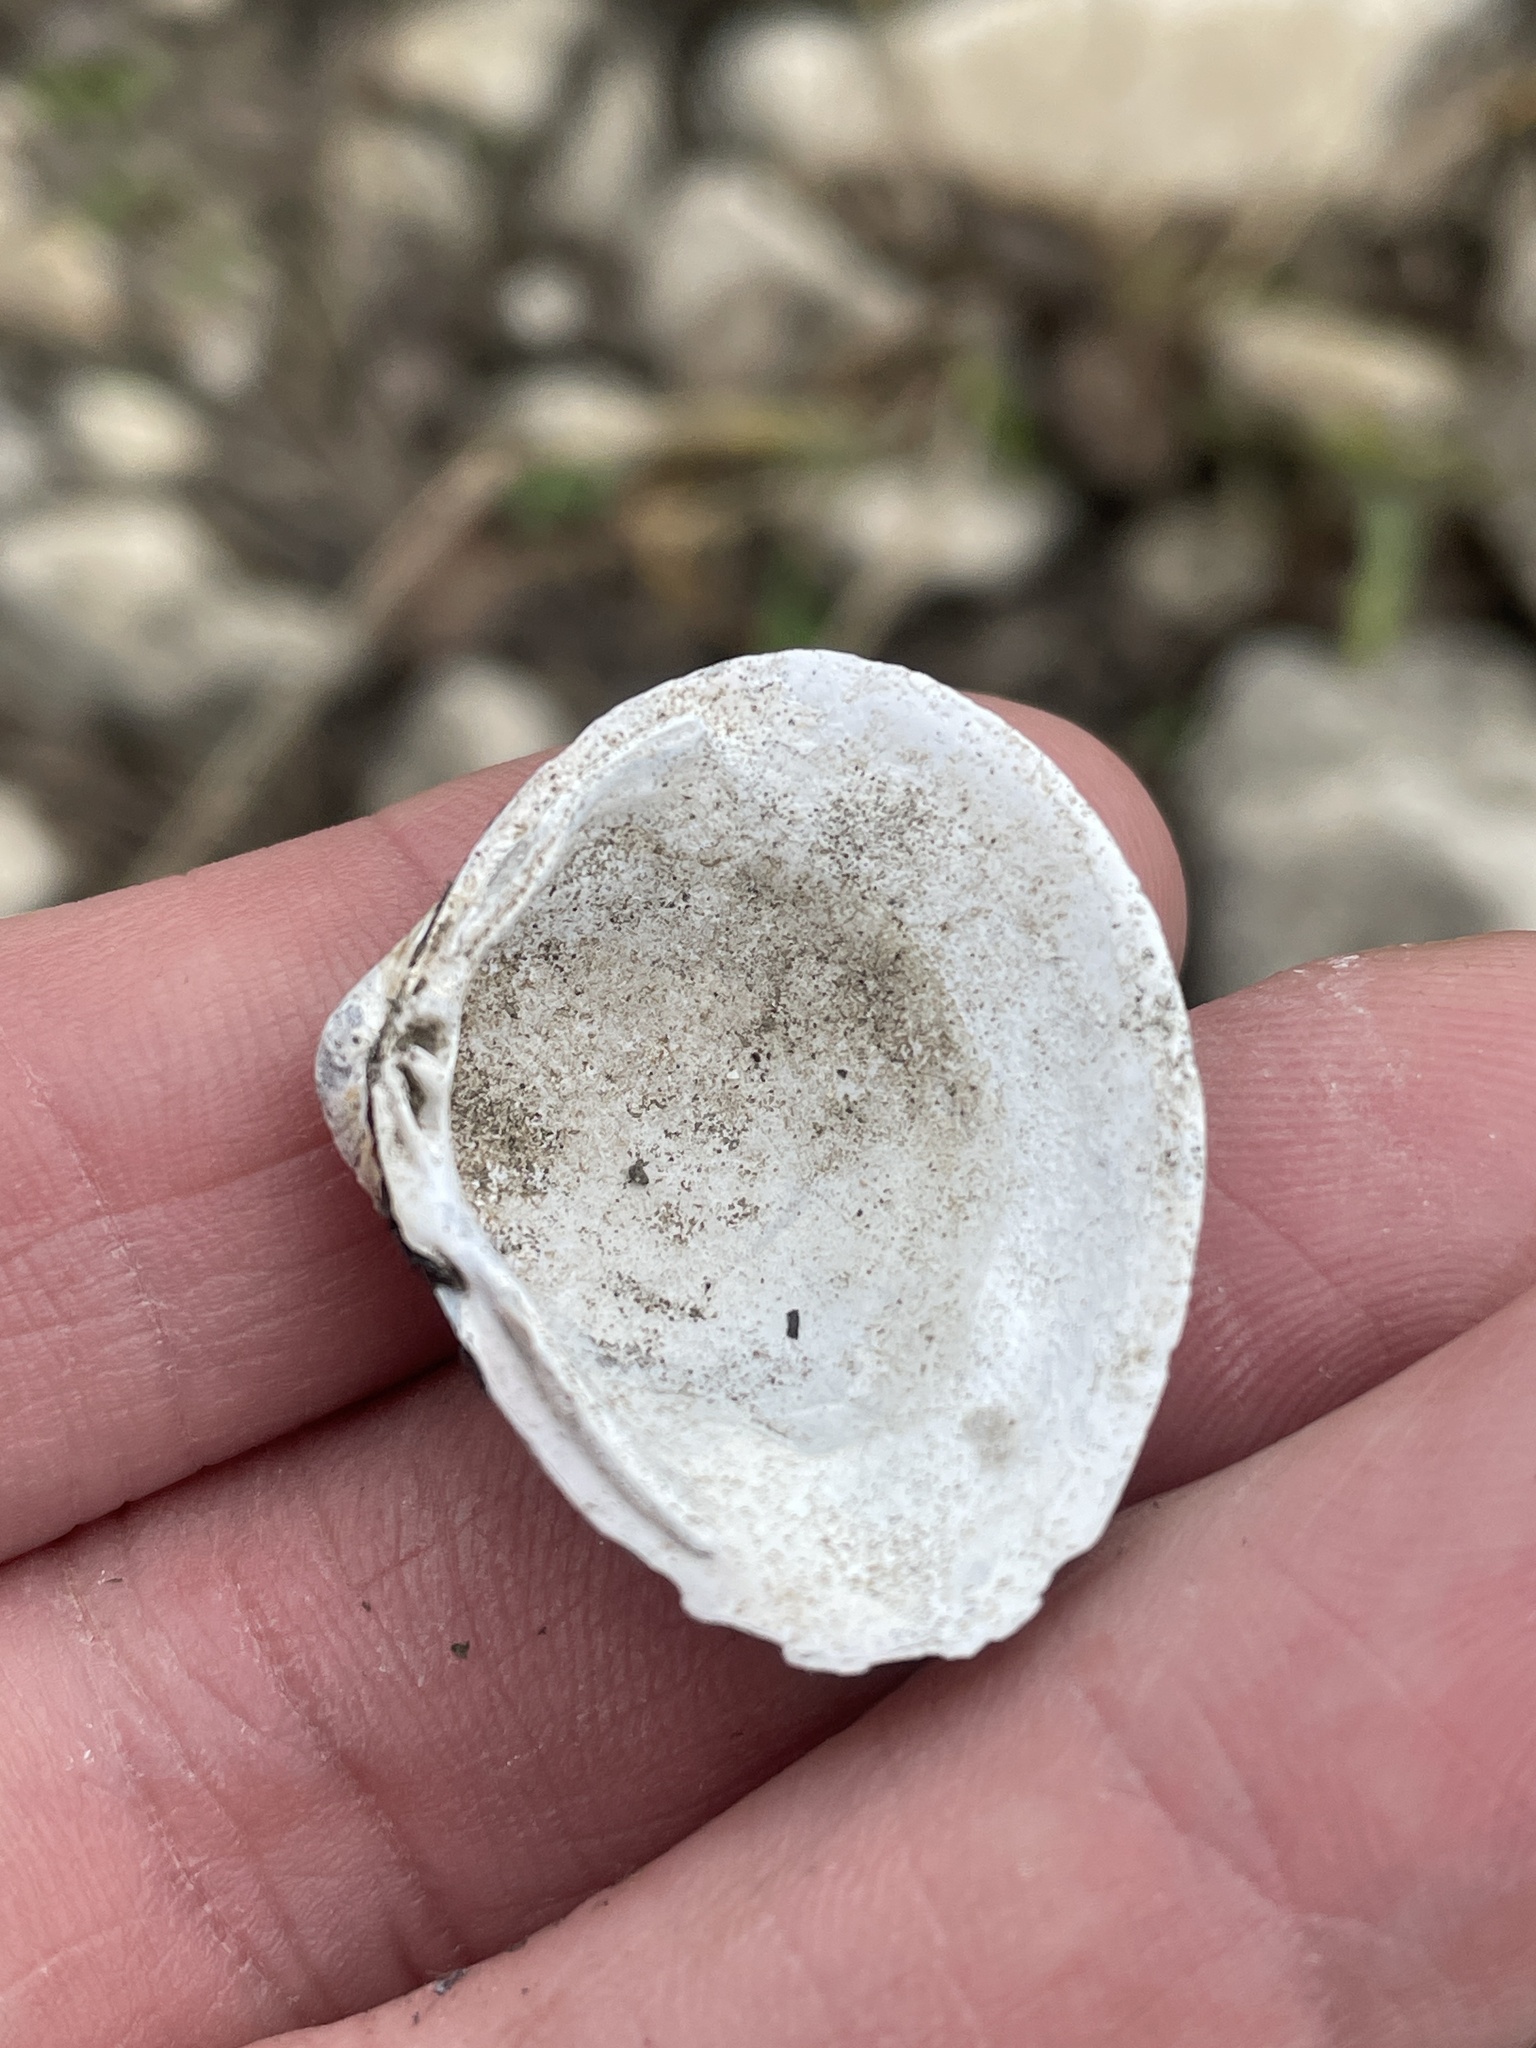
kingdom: Animalia
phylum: Mollusca
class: Bivalvia
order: Venerida
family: Cyrenidae
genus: Corbicula
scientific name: Corbicula fluminea
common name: Asian clam
